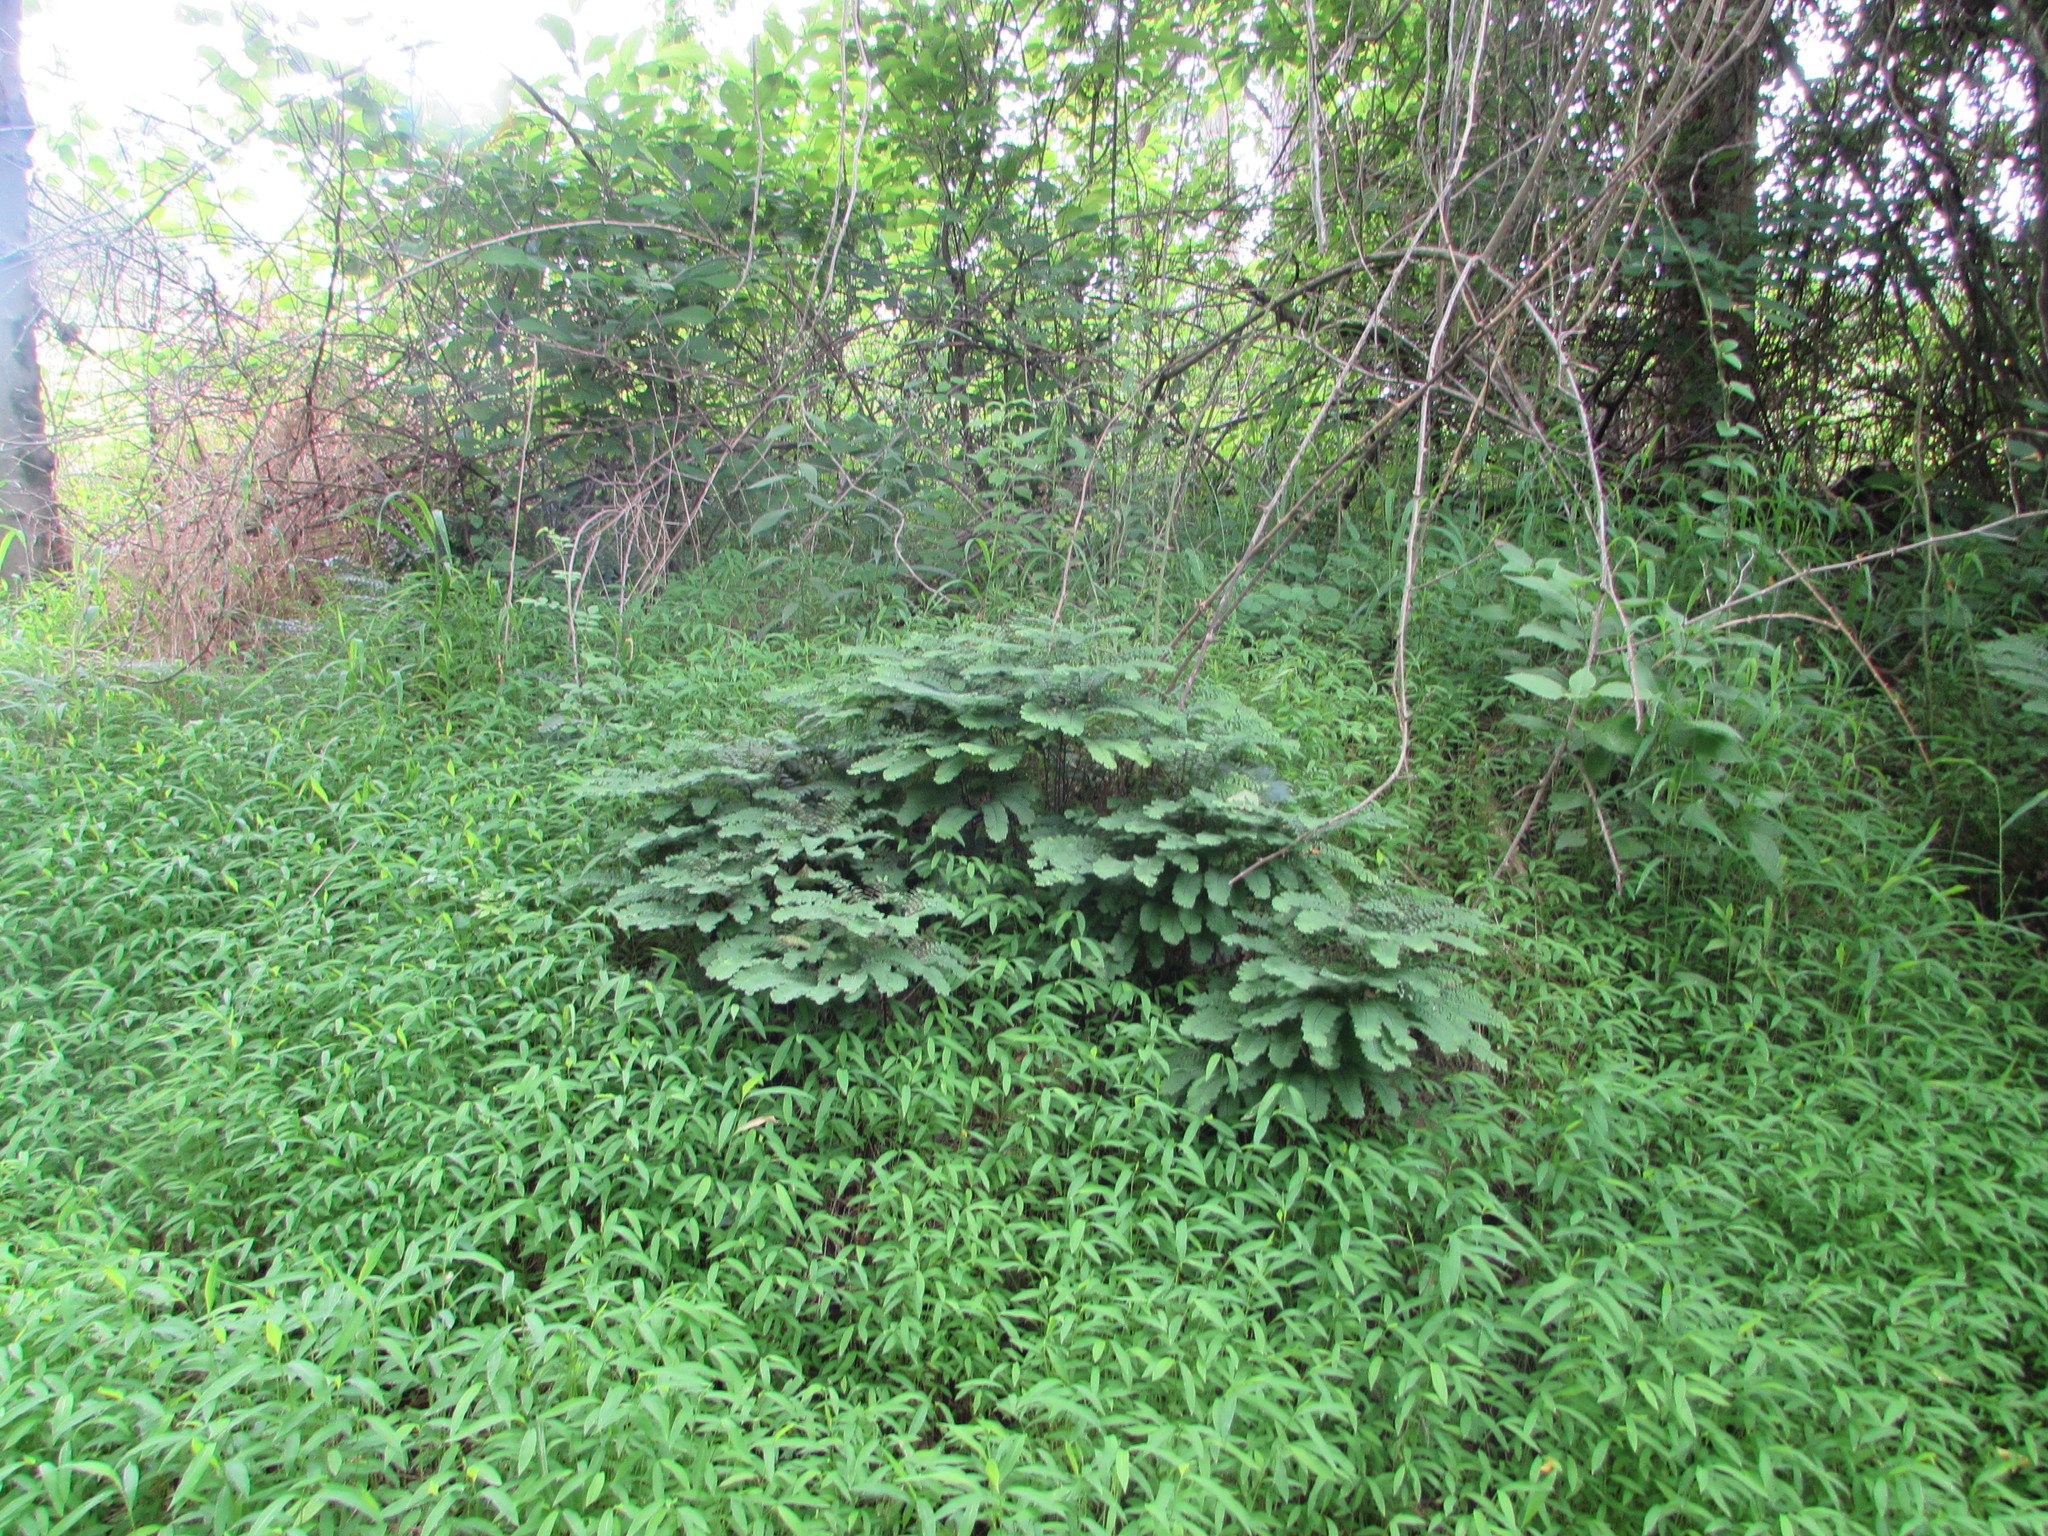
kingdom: Plantae
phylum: Tracheophyta
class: Polypodiopsida
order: Polypodiales
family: Pteridaceae
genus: Adiantum
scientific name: Adiantum pedatum
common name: Five-finger fern
